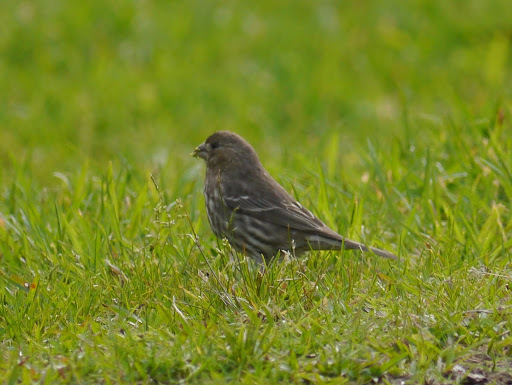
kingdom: Animalia
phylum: Chordata
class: Aves
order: Passeriformes
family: Fringillidae
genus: Haemorhous
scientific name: Haemorhous mexicanus
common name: House finch
